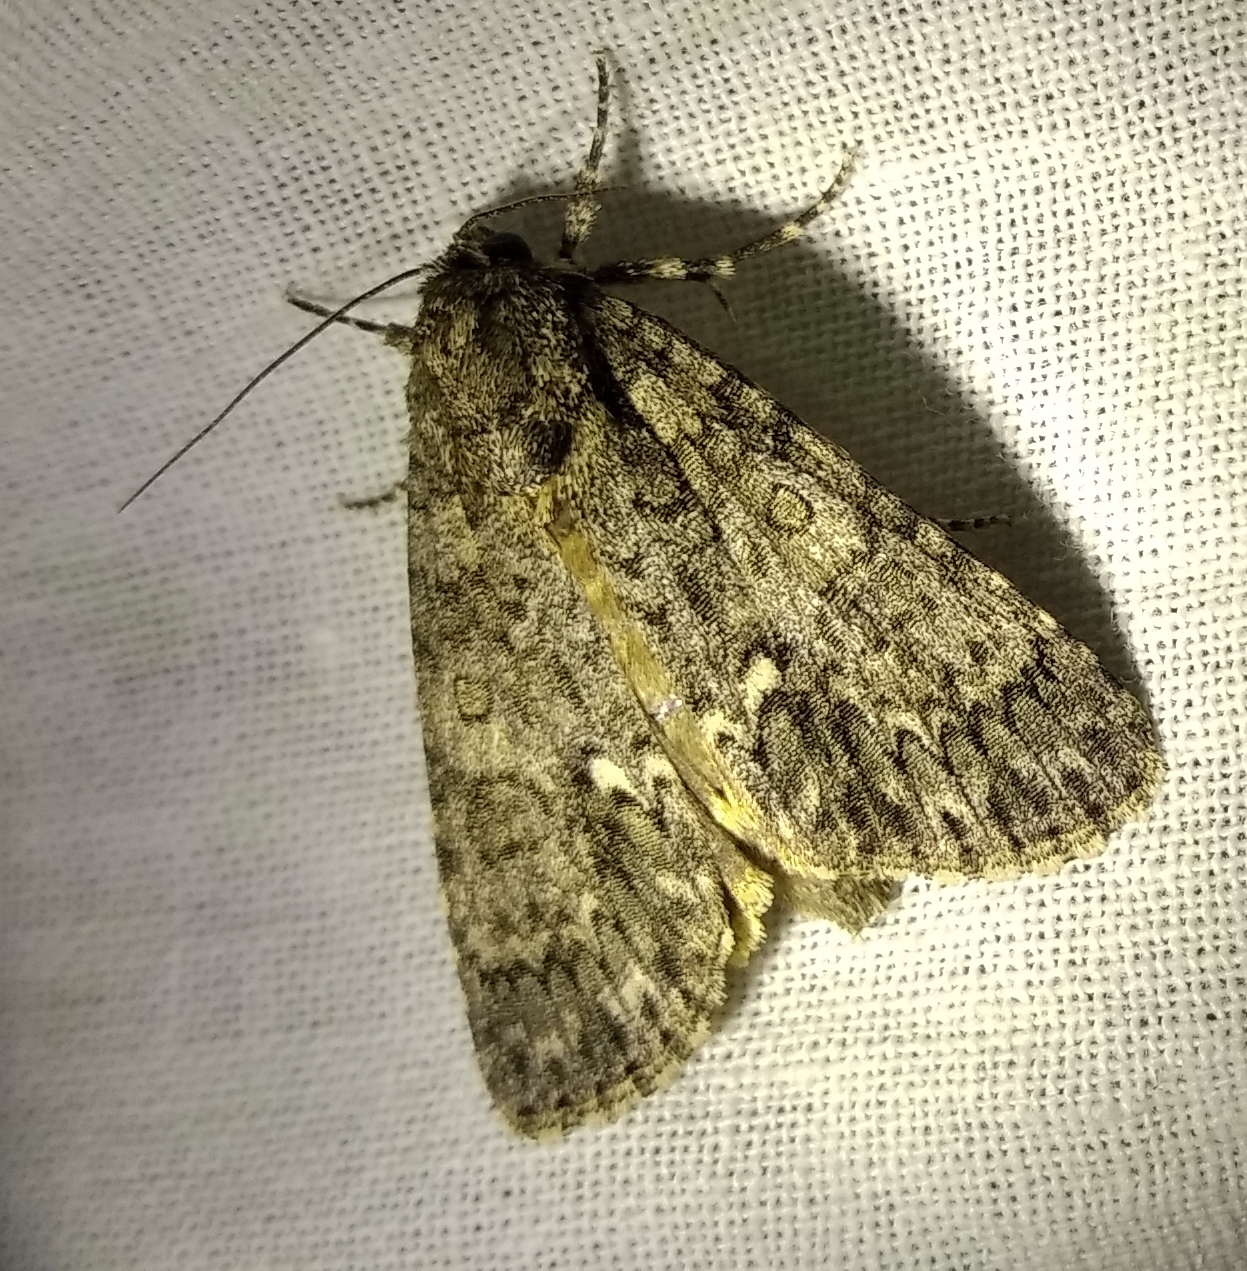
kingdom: Animalia
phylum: Arthropoda
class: Insecta
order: Lepidoptera
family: Noctuidae
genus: Acronicta
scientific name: Acronicta rumicis
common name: Knot grass
